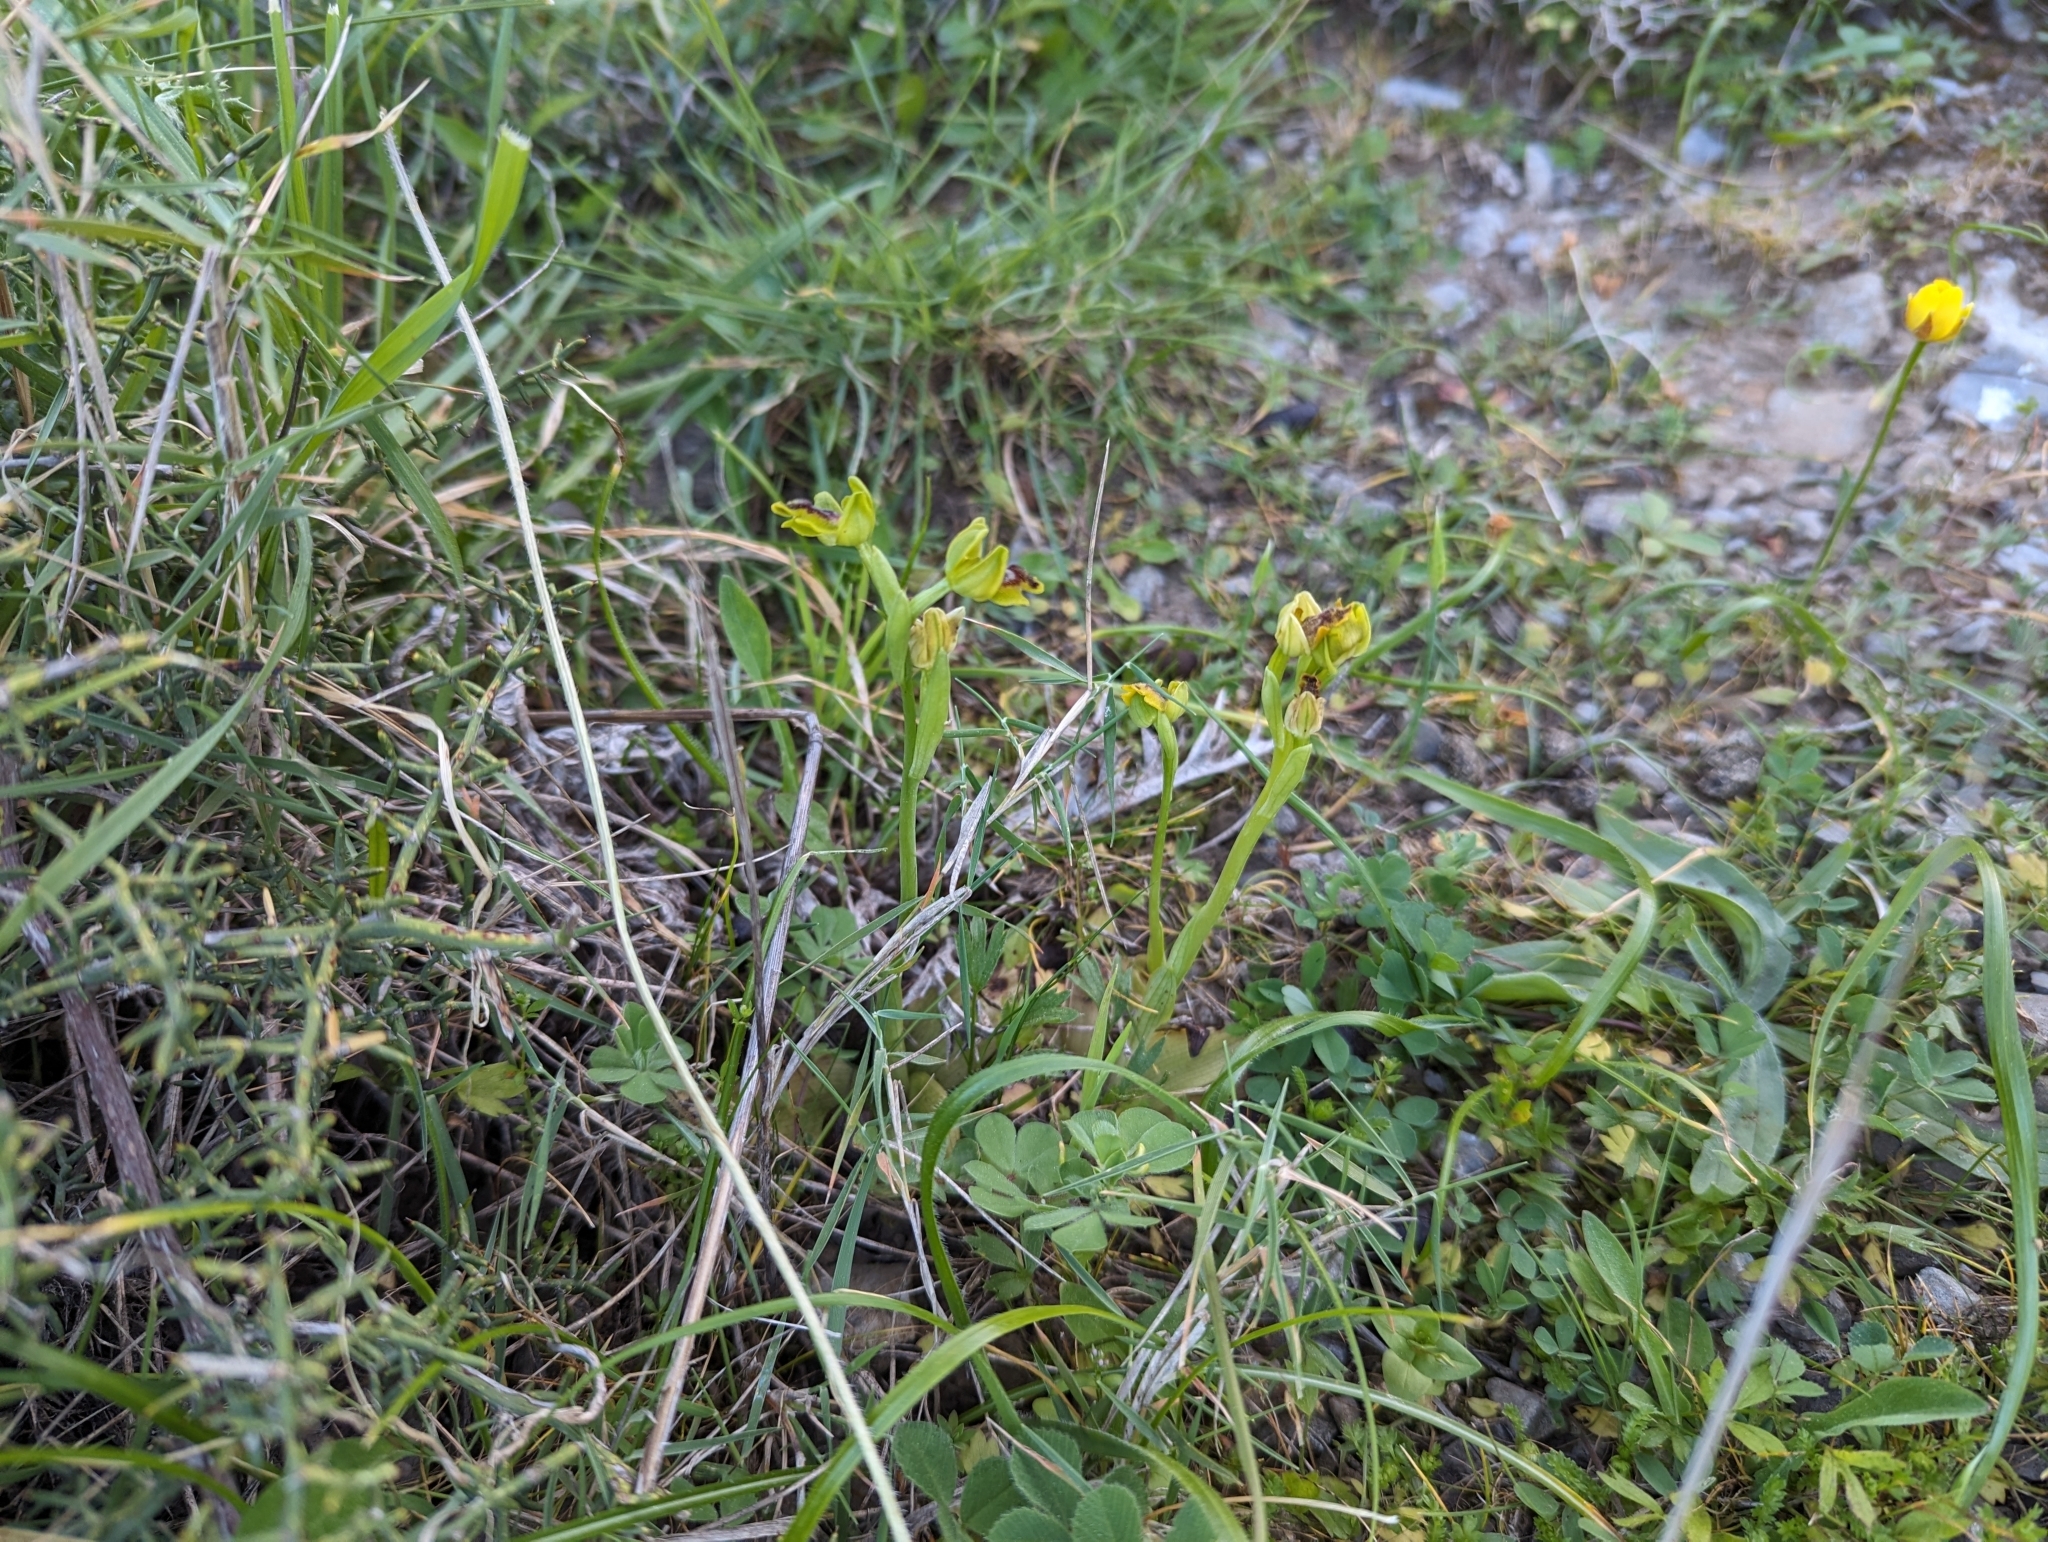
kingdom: Plantae
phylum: Tracheophyta
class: Liliopsida
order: Asparagales
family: Orchidaceae
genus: Ophrys
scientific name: Ophrys lutea
